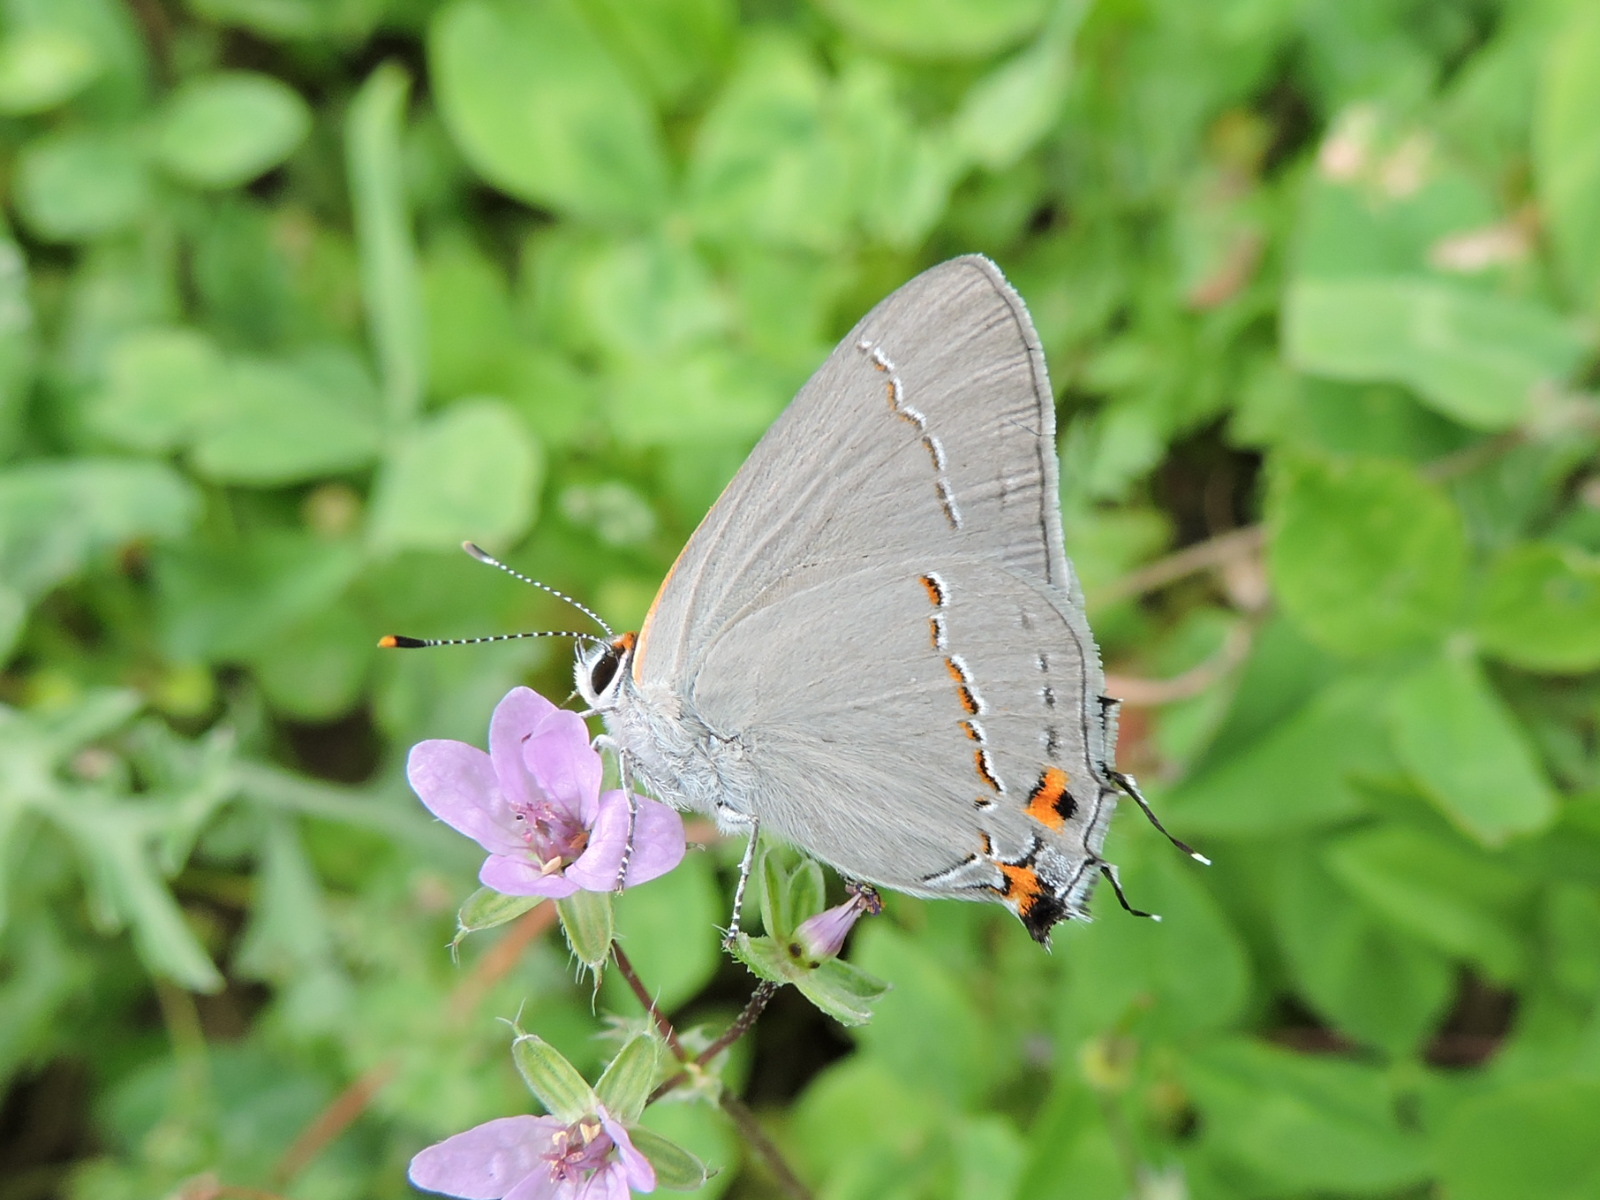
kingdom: Animalia
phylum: Arthropoda
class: Insecta
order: Lepidoptera
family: Lycaenidae
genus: Strymon
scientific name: Strymon melinus
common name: Gray hairstreak
